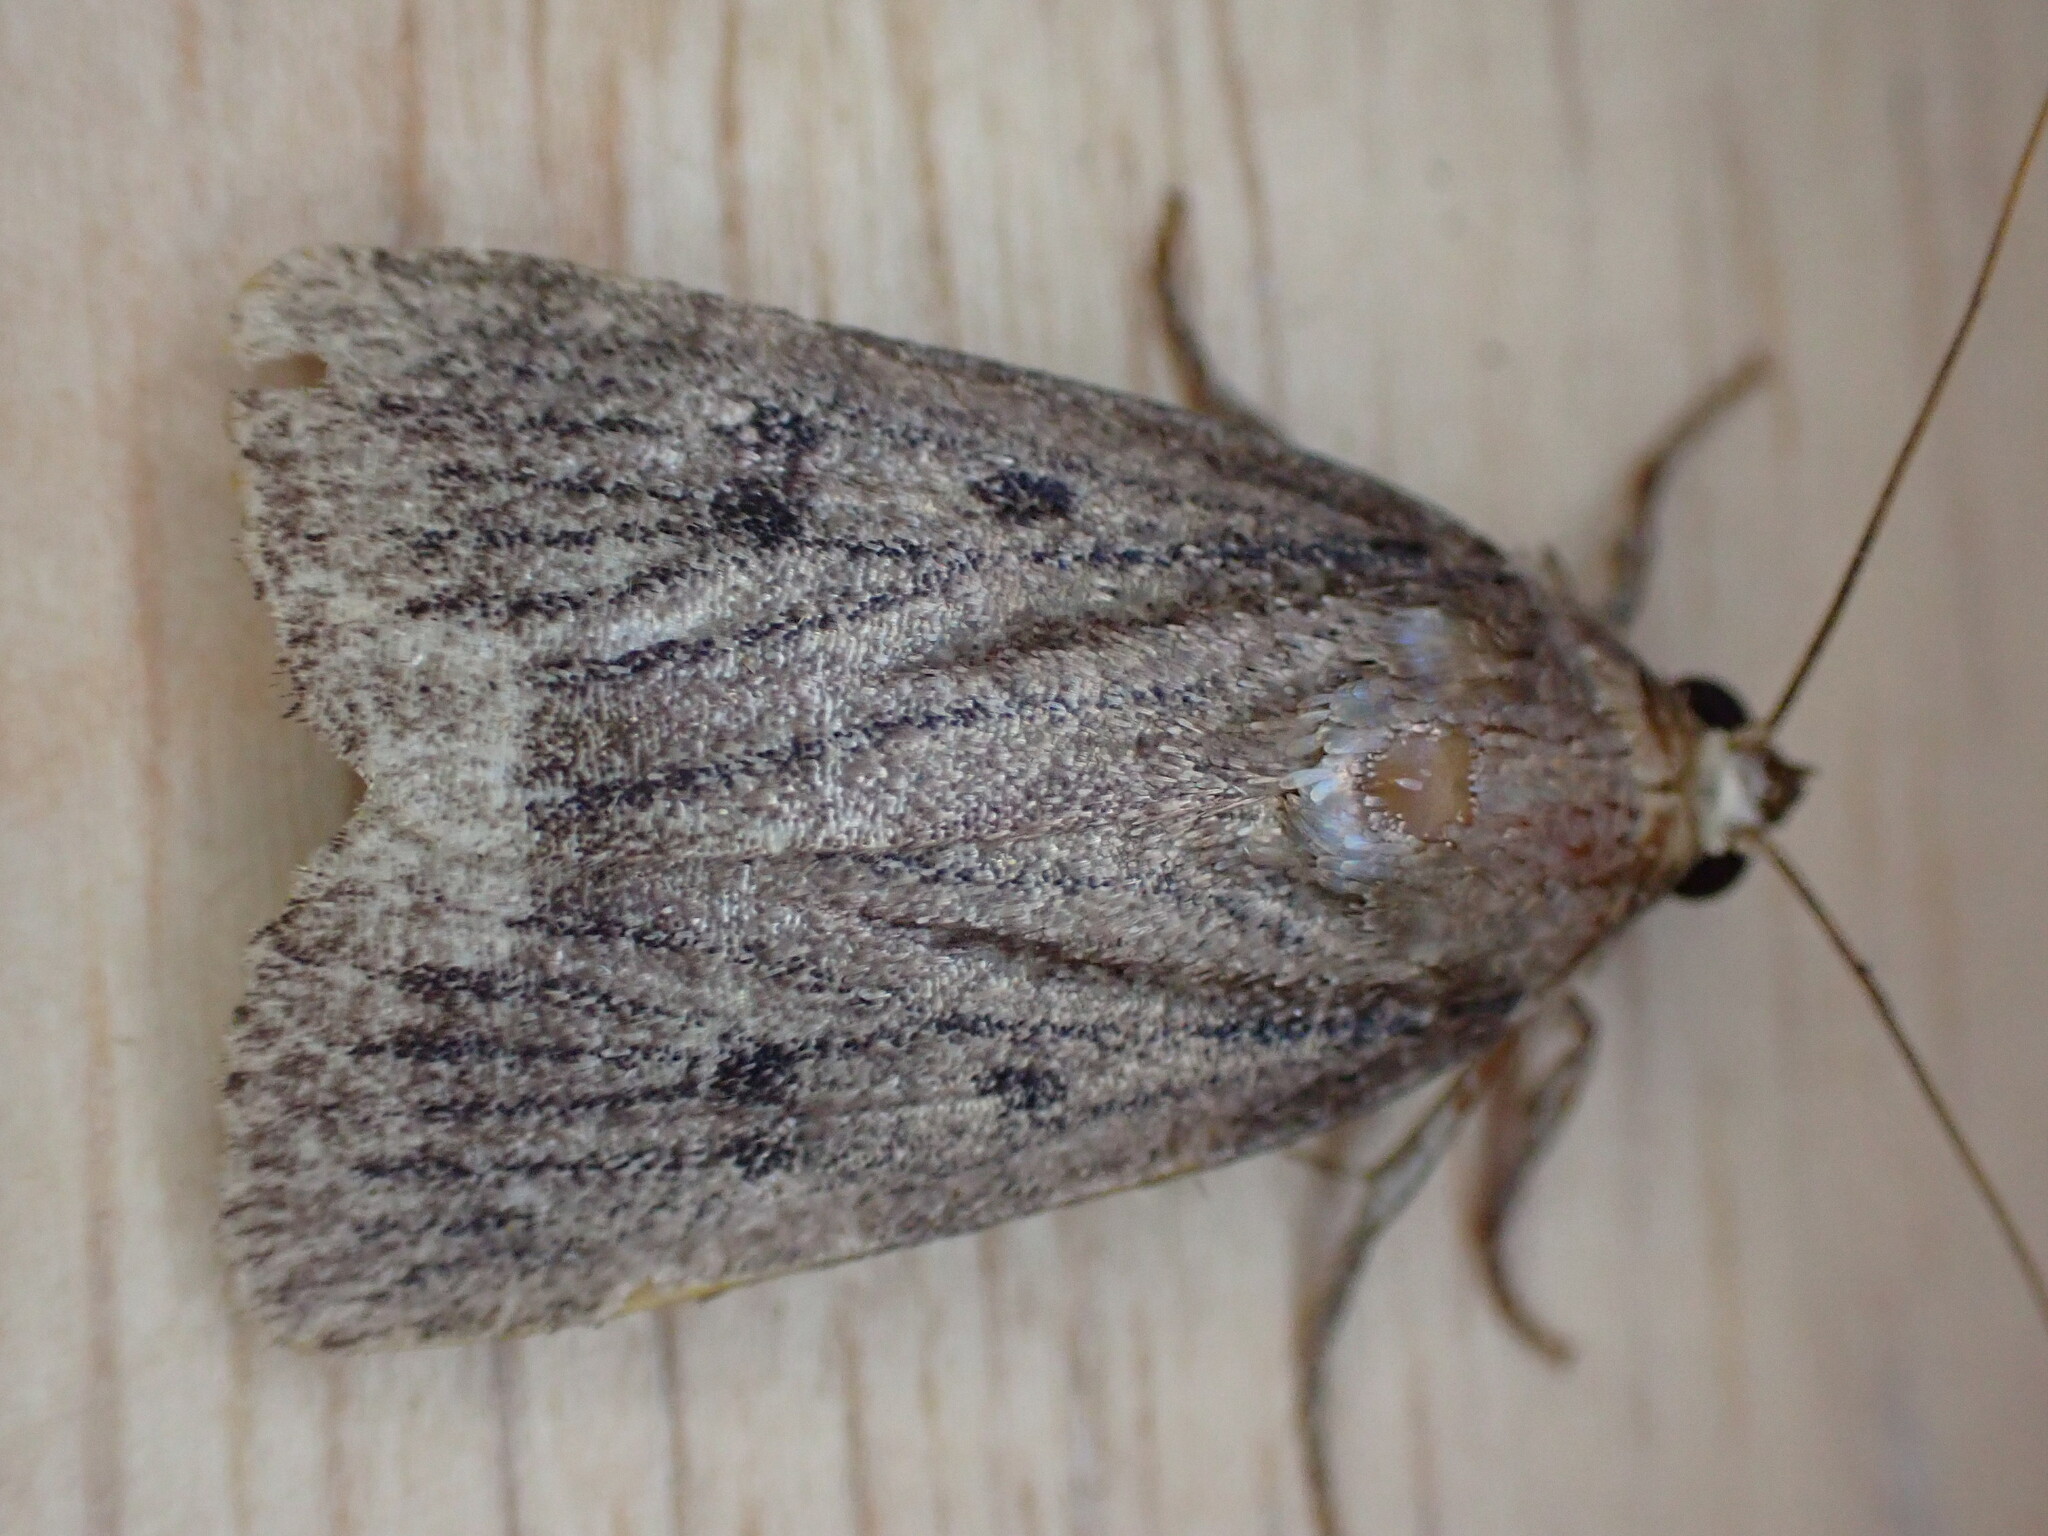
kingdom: Animalia
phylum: Arthropoda
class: Insecta
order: Lepidoptera
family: Noctuidae
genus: Amphipyra
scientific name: Amphipyra tragopoginis
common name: Mouse moth
